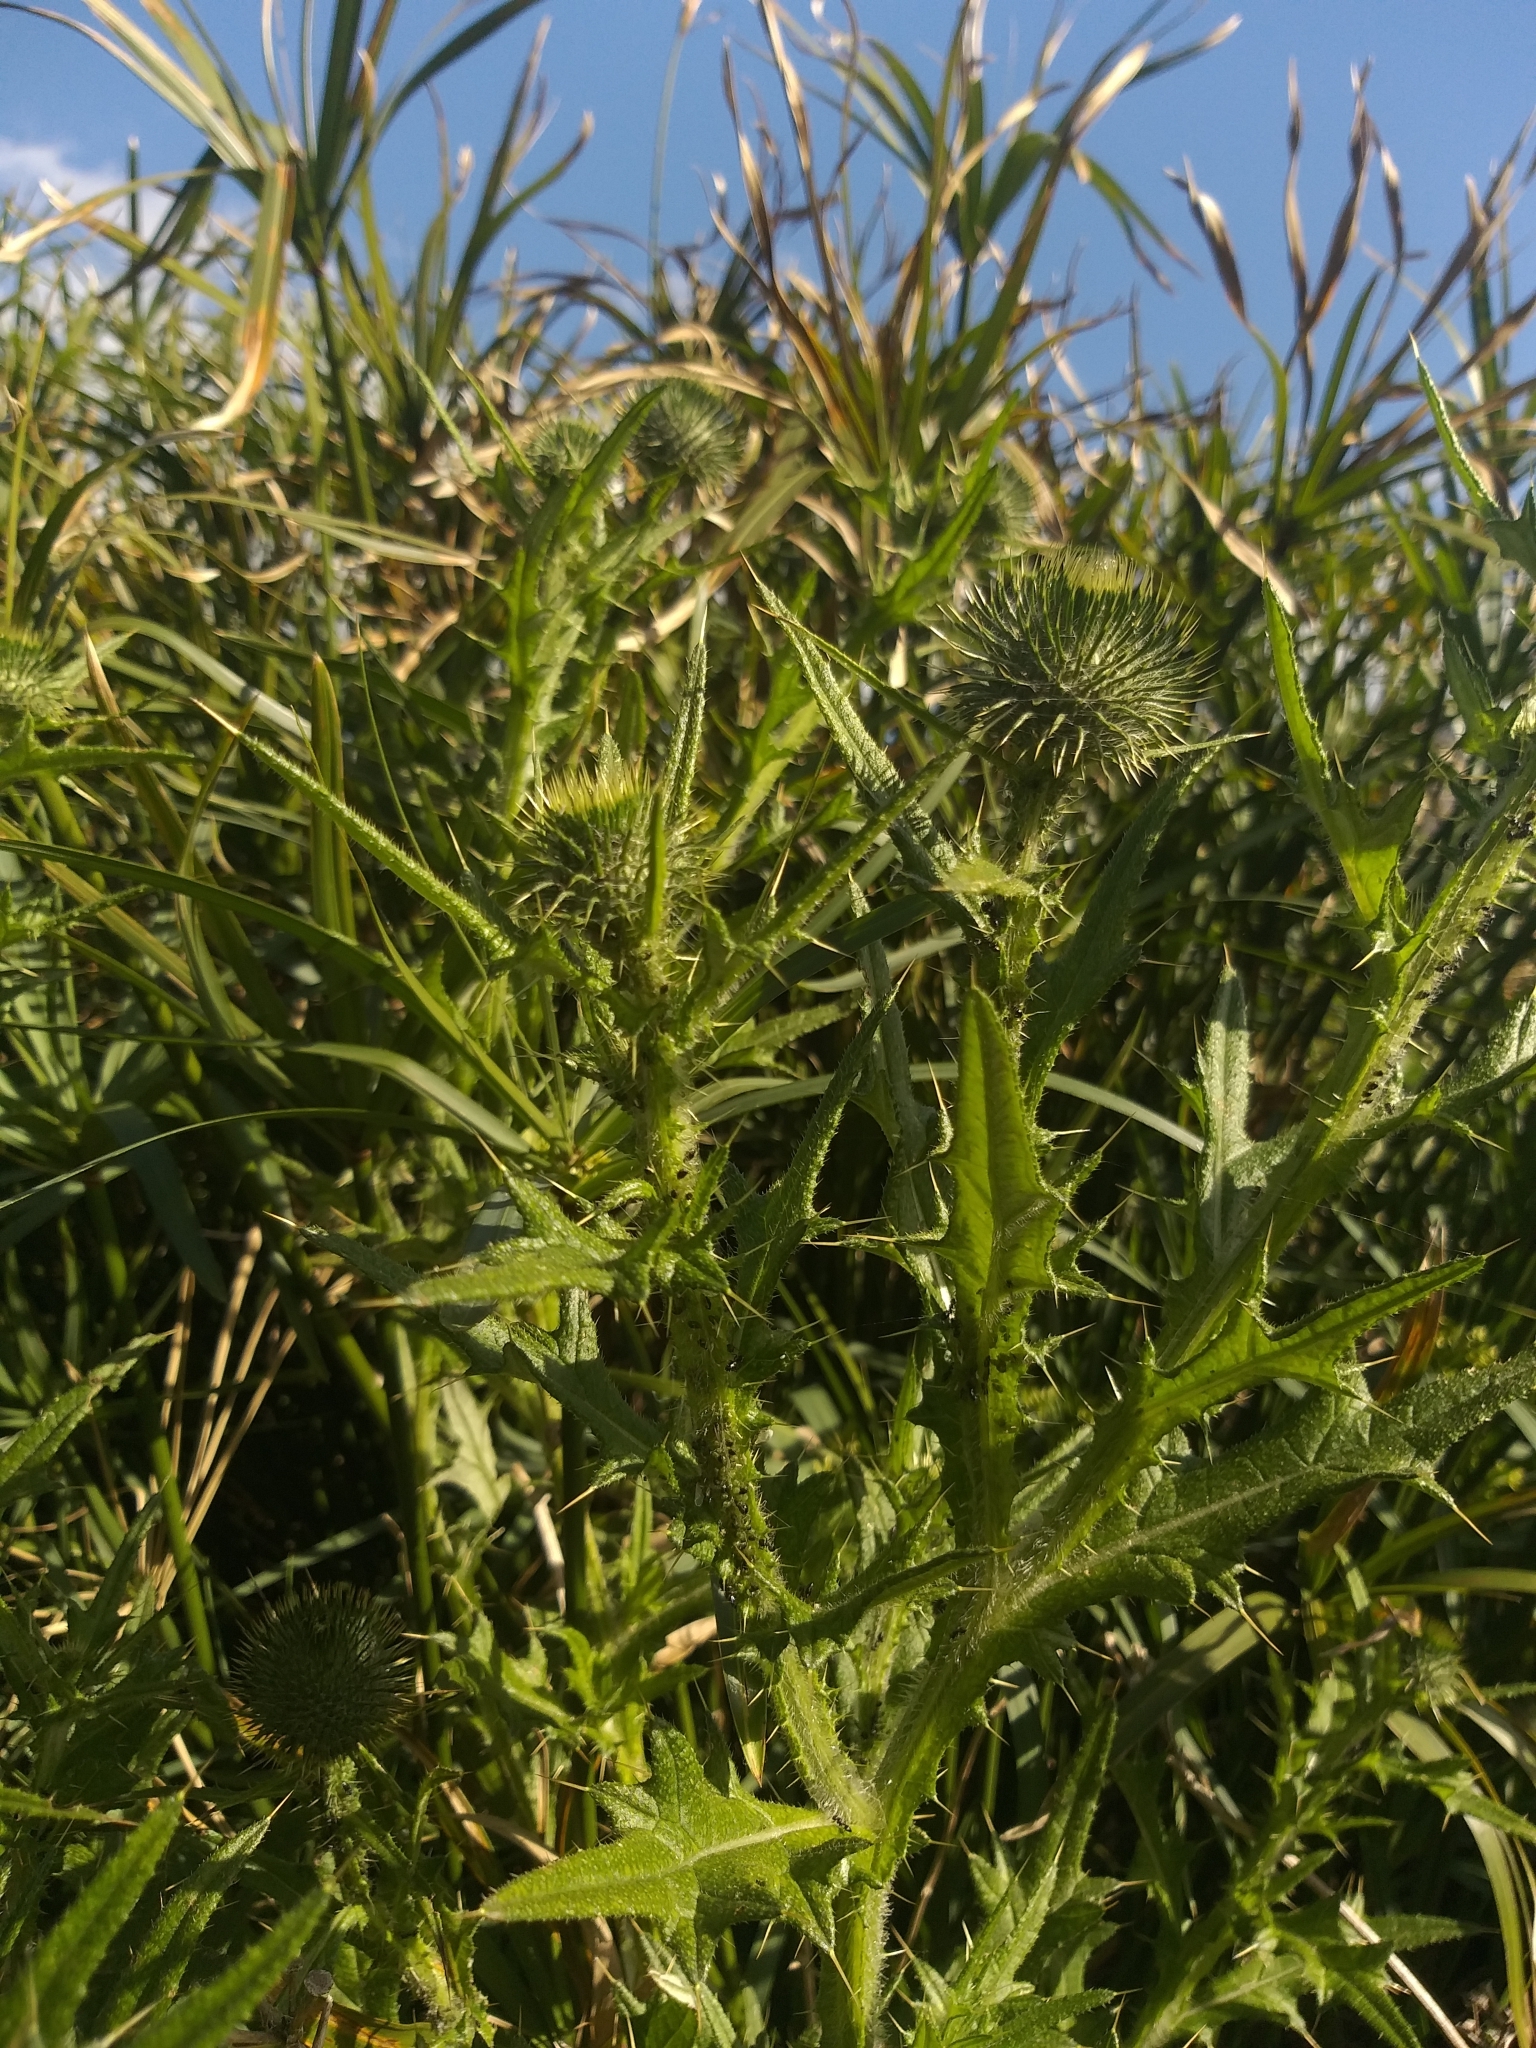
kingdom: Plantae
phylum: Tracheophyta
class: Magnoliopsida
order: Asterales
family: Asteraceae
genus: Cirsium
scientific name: Cirsium vulgare
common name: Bull thistle
